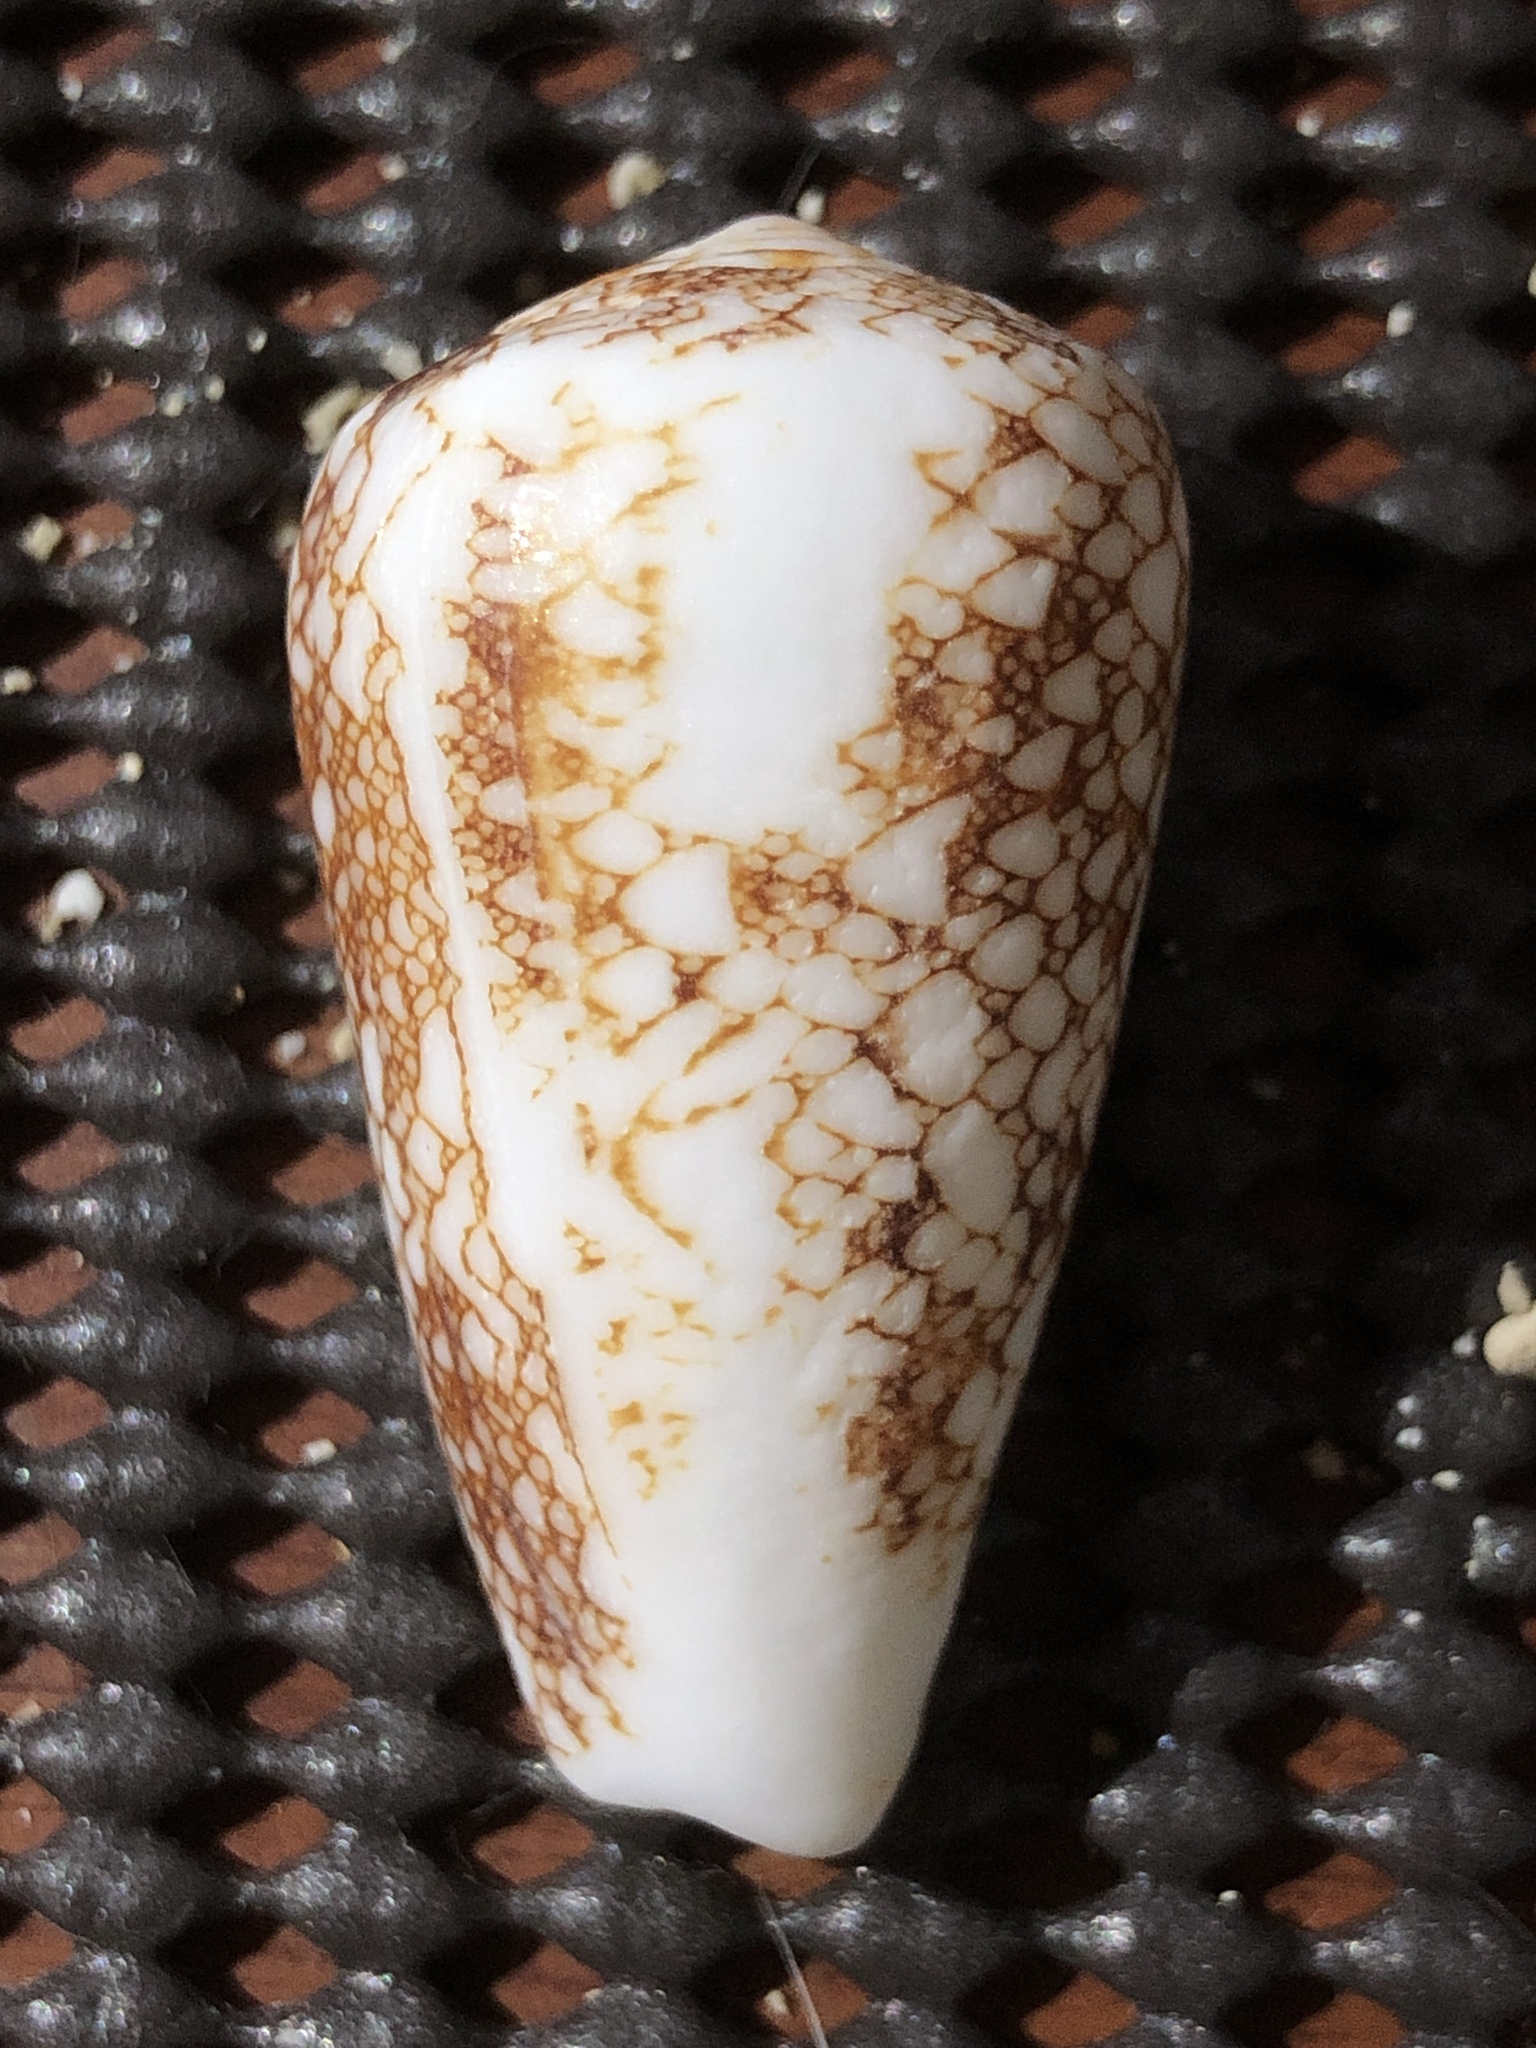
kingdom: Animalia
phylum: Mollusca
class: Gastropoda
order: Neogastropoda
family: Conidae
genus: Conus
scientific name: Conus omaria
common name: Omaria cone
